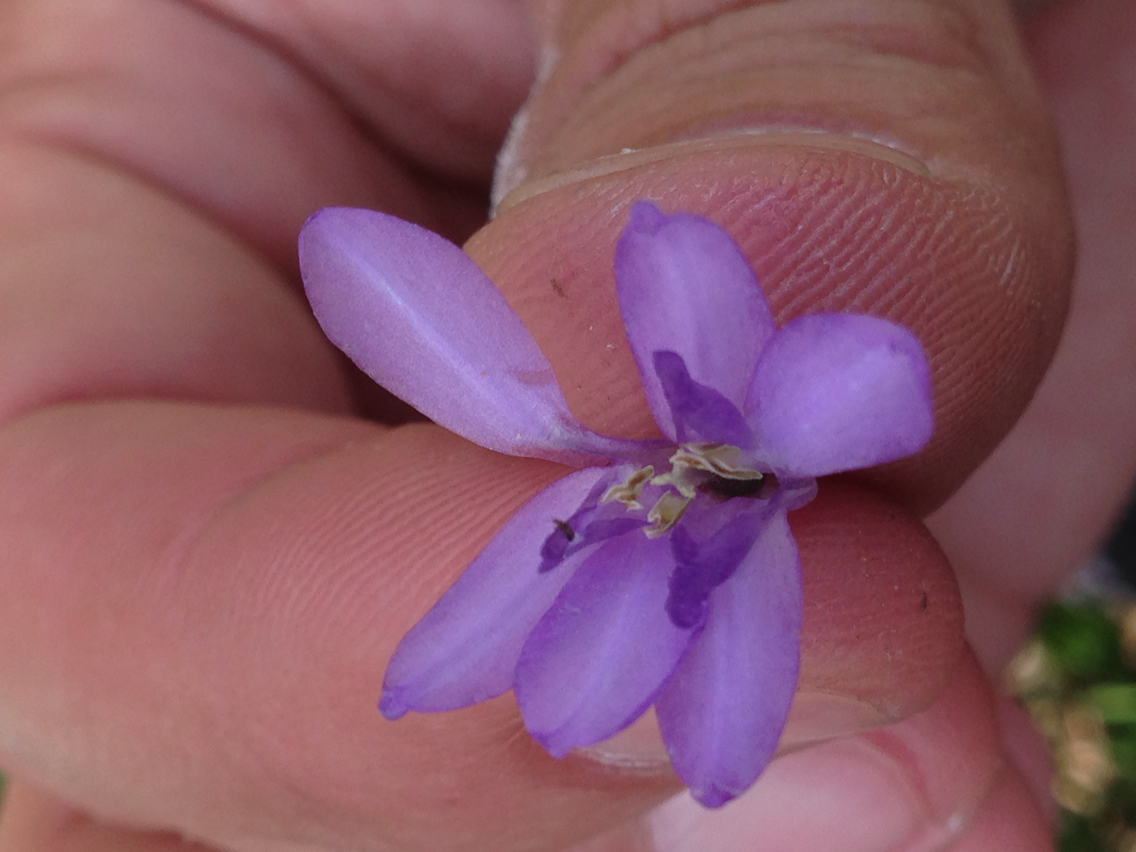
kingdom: Plantae
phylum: Tracheophyta
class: Liliopsida
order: Asparagales
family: Asparagaceae
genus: Dichelostemma
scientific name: Dichelostemma congestum
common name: Fork-tooth ookow
